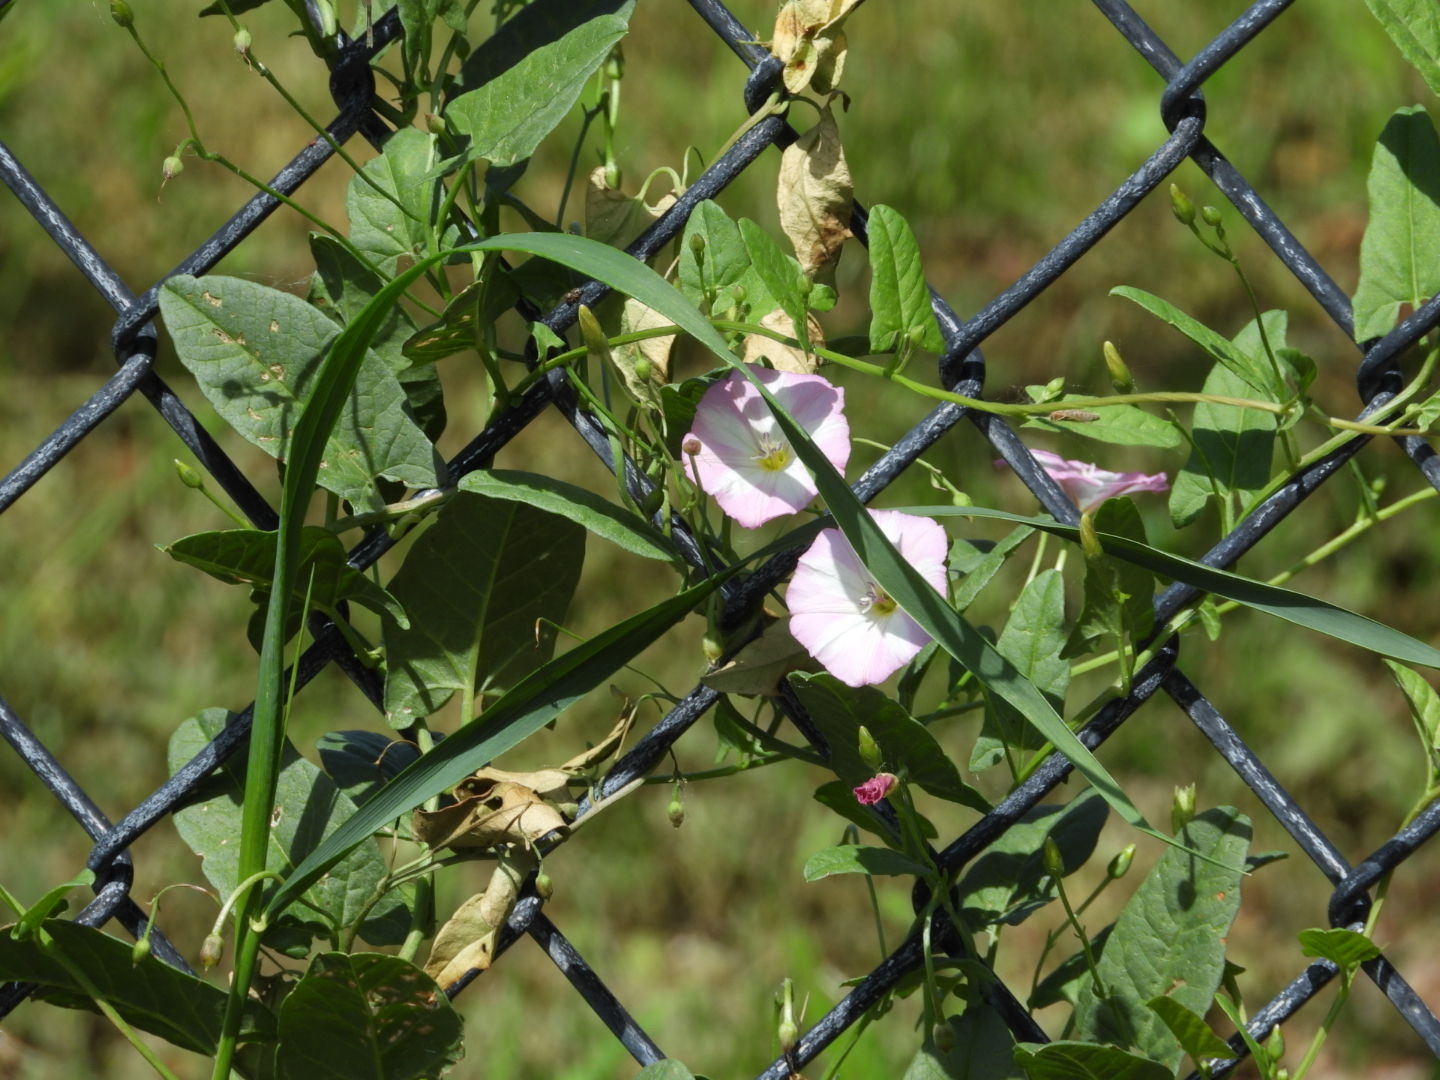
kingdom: Plantae
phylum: Tracheophyta
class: Magnoliopsida
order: Solanales
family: Convolvulaceae
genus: Convolvulus
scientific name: Convolvulus arvensis
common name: Field bindweed
